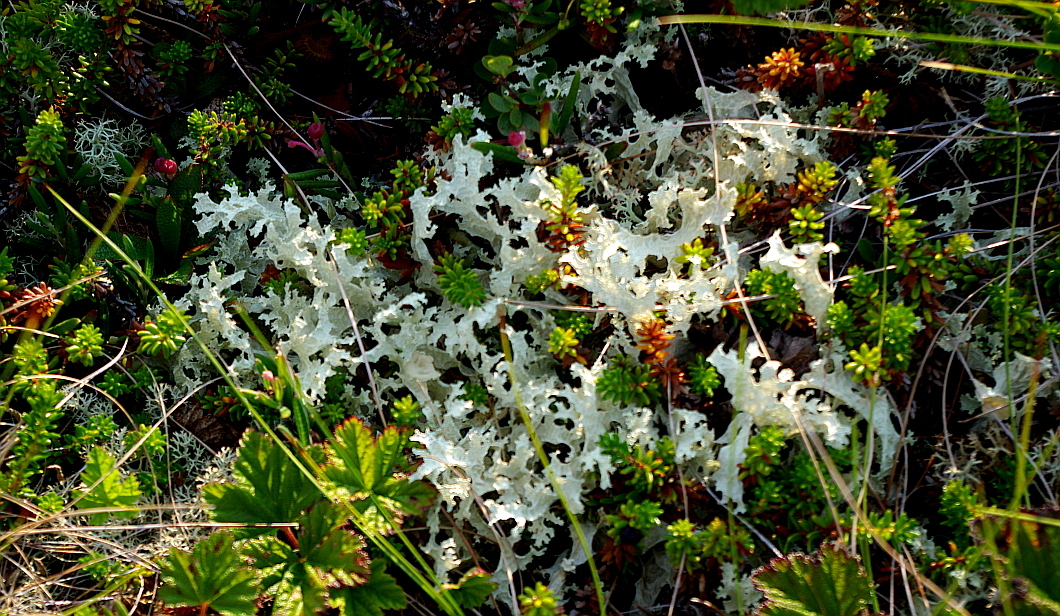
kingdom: Fungi
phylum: Ascomycota
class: Lecanoromycetes
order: Lecanorales
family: Parmeliaceae
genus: Nephromopsis
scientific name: Nephromopsis nivalis
